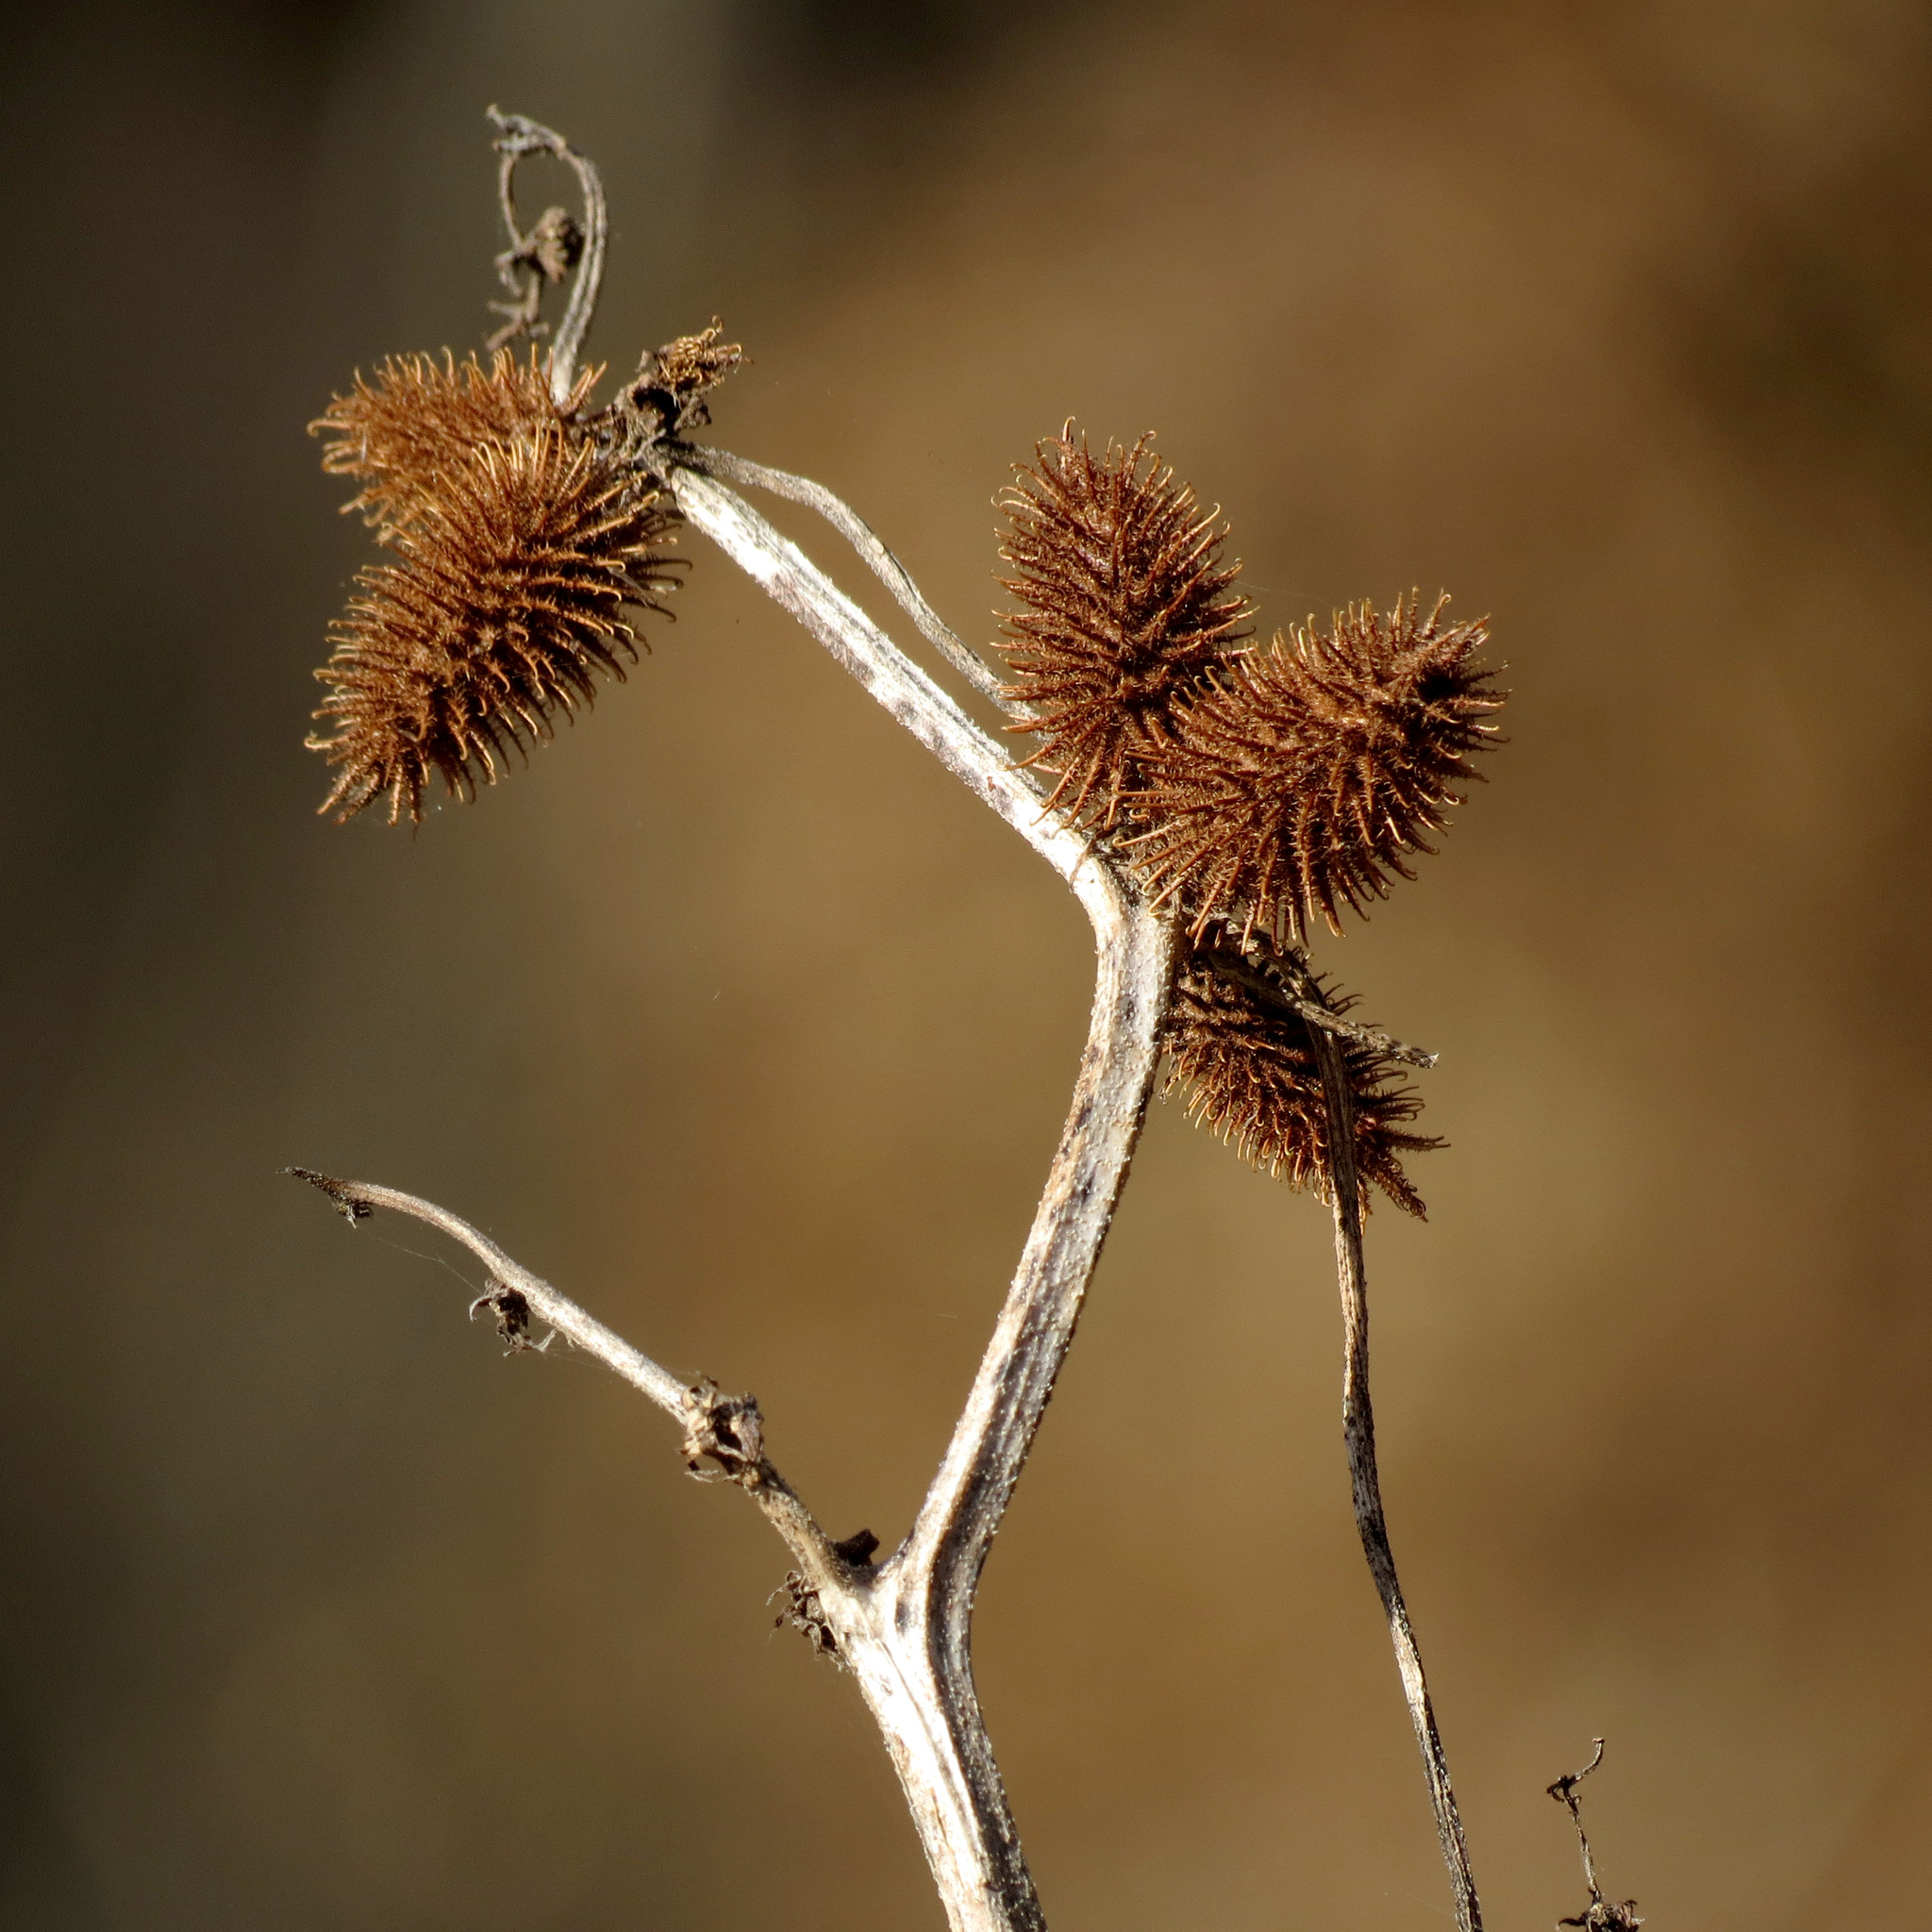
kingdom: Plantae
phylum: Tracheophyta
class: Magnoliopsida
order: Asterales
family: Asteraceae
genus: Xanthium
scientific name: Xanthium strumarium
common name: Rough cocklebur
